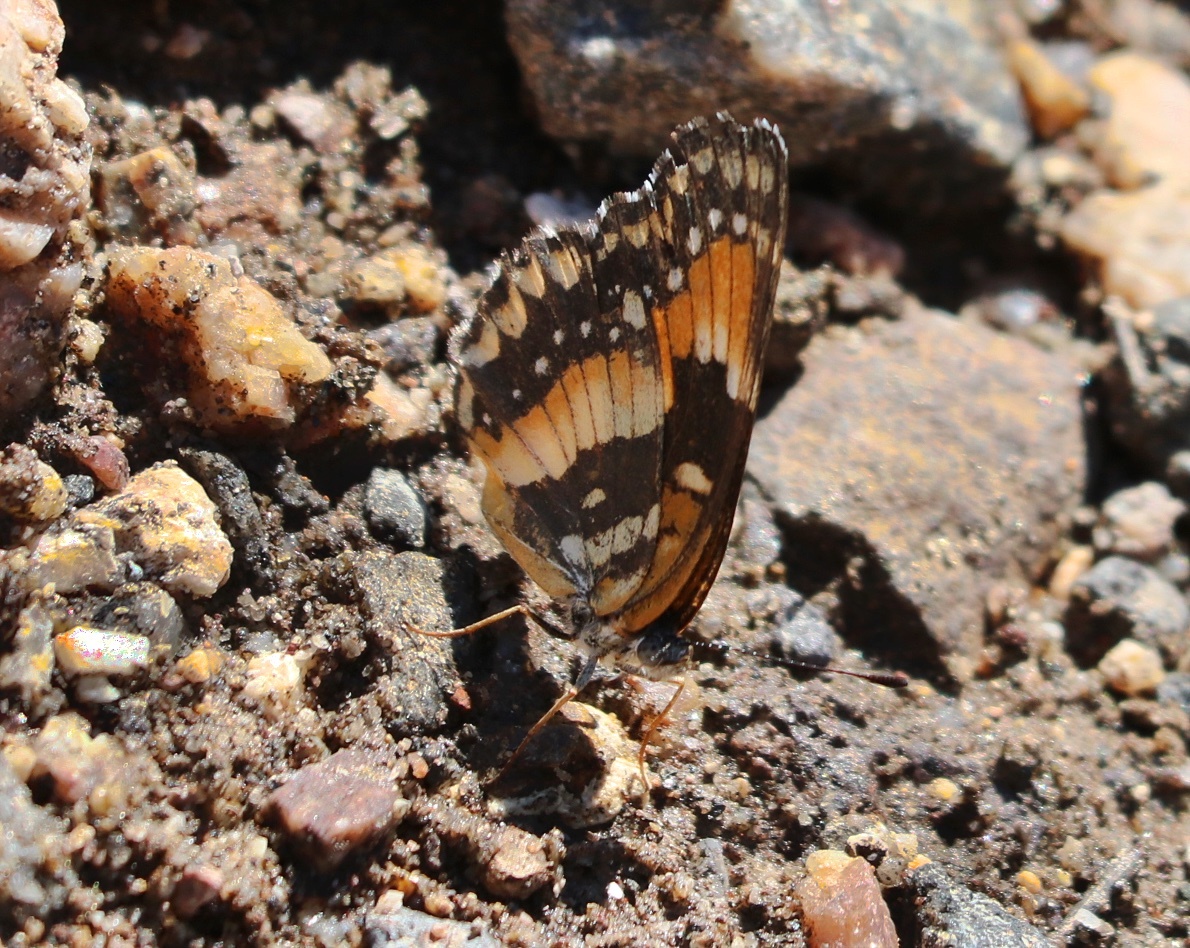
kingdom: Animalia
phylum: Arthropoda
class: Insecta
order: Lepidoptera
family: Nymphalidae
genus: Chlosyne
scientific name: Chlosyne californica
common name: California patch
